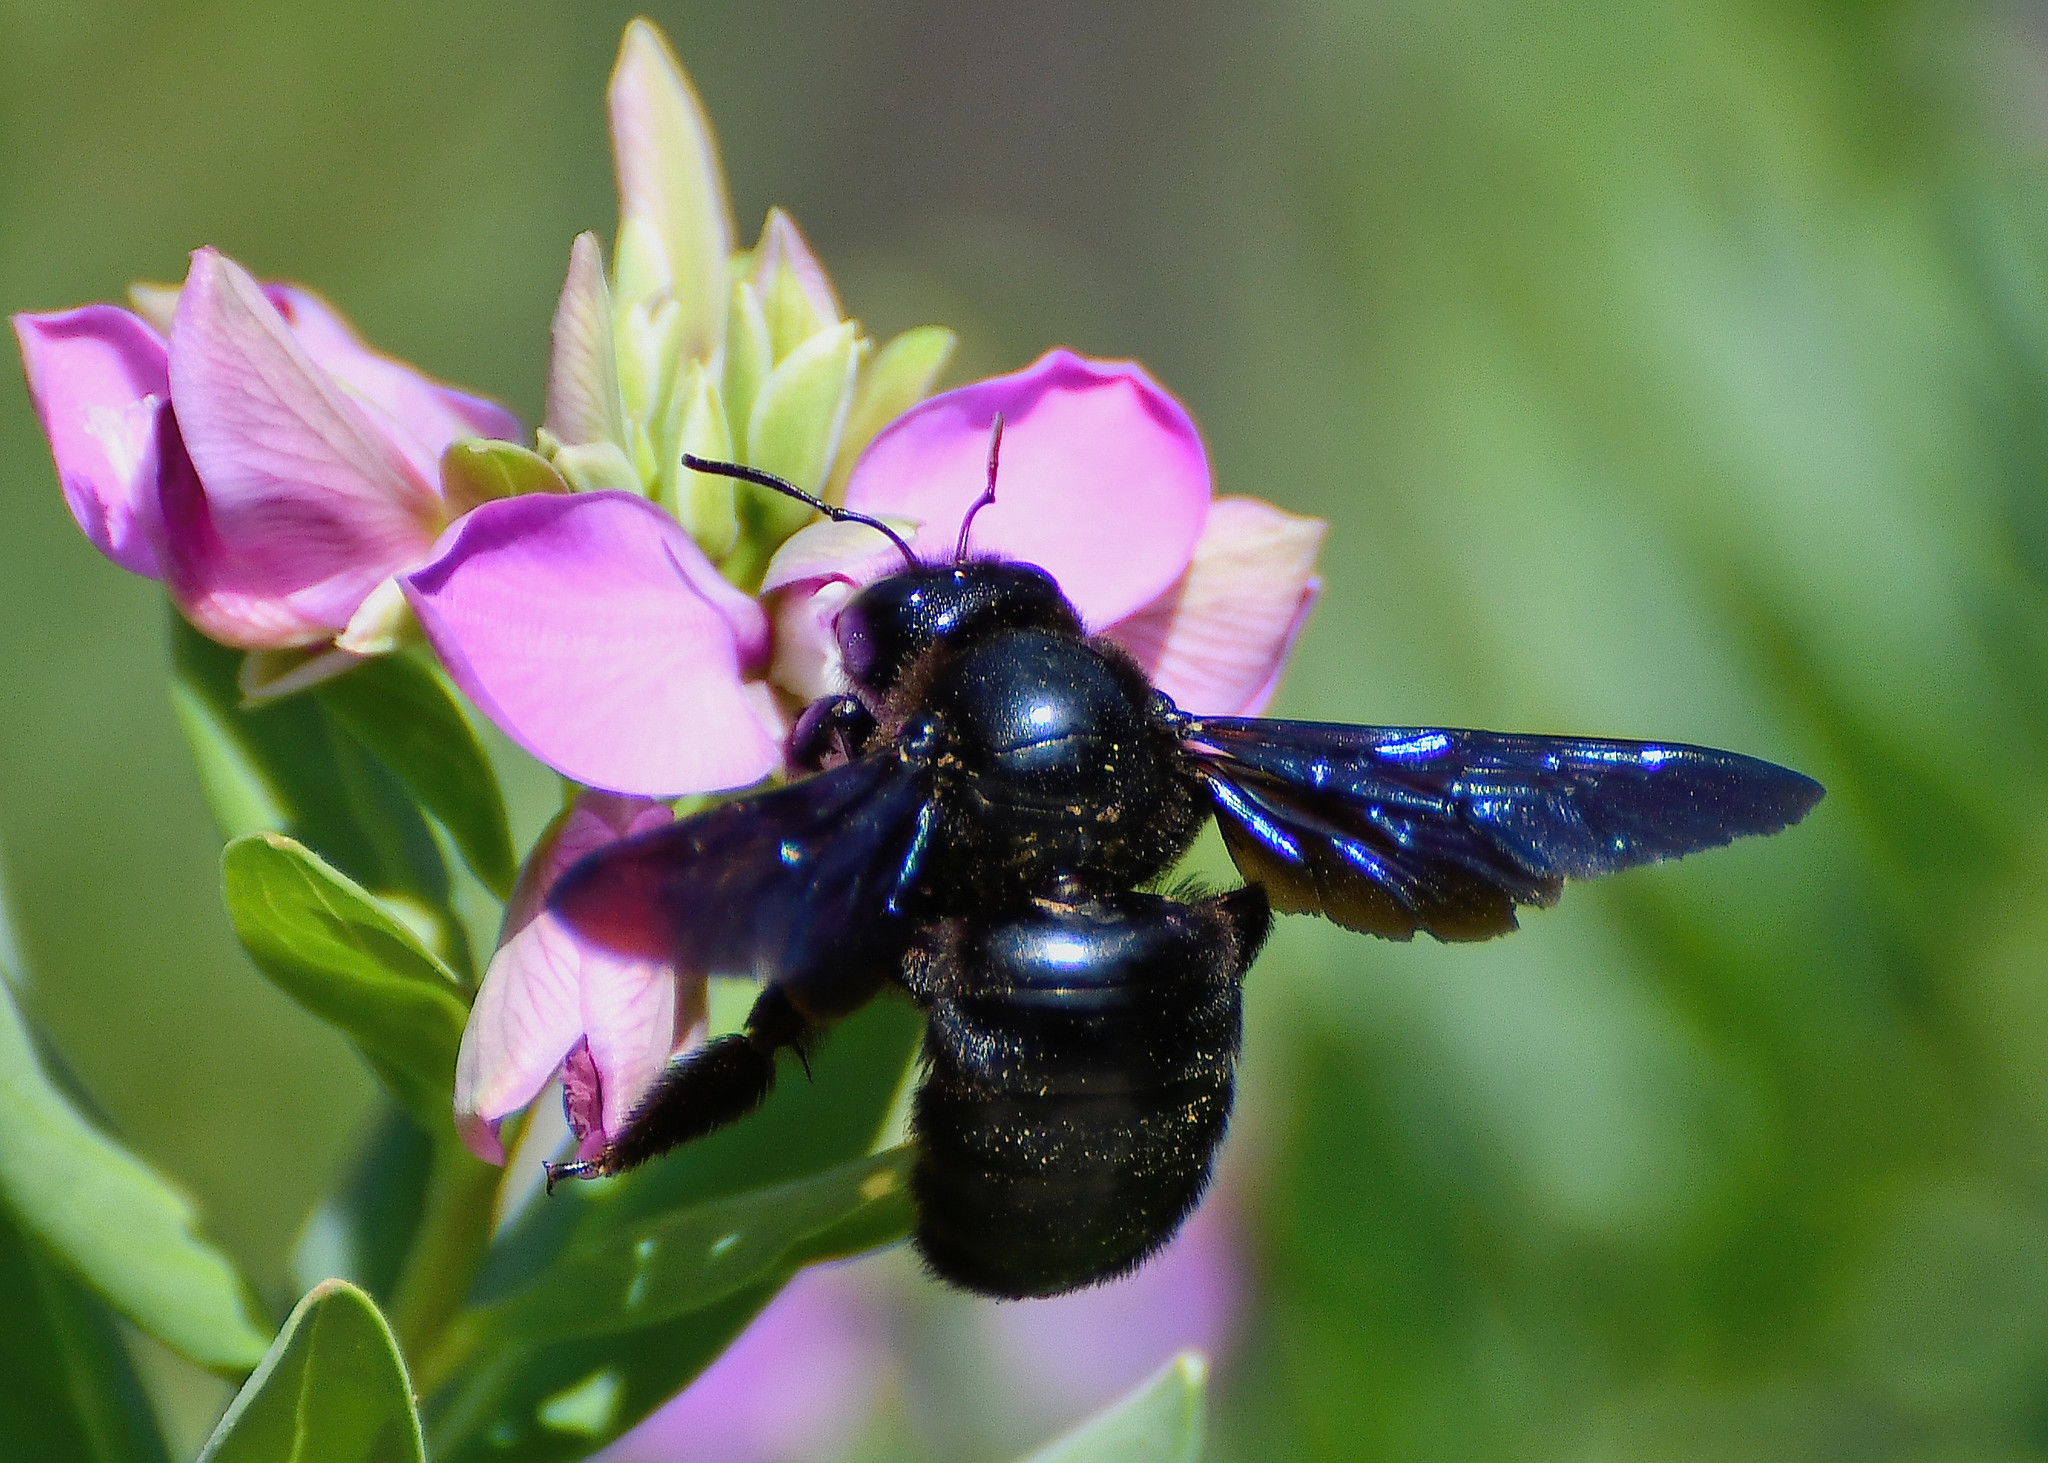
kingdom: Animalia
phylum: Arthropoda
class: Insecta
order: Hymenoptera
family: Apidae
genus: Xylocopa
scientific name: Xylocopa violacea
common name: Violet carpenter bee
